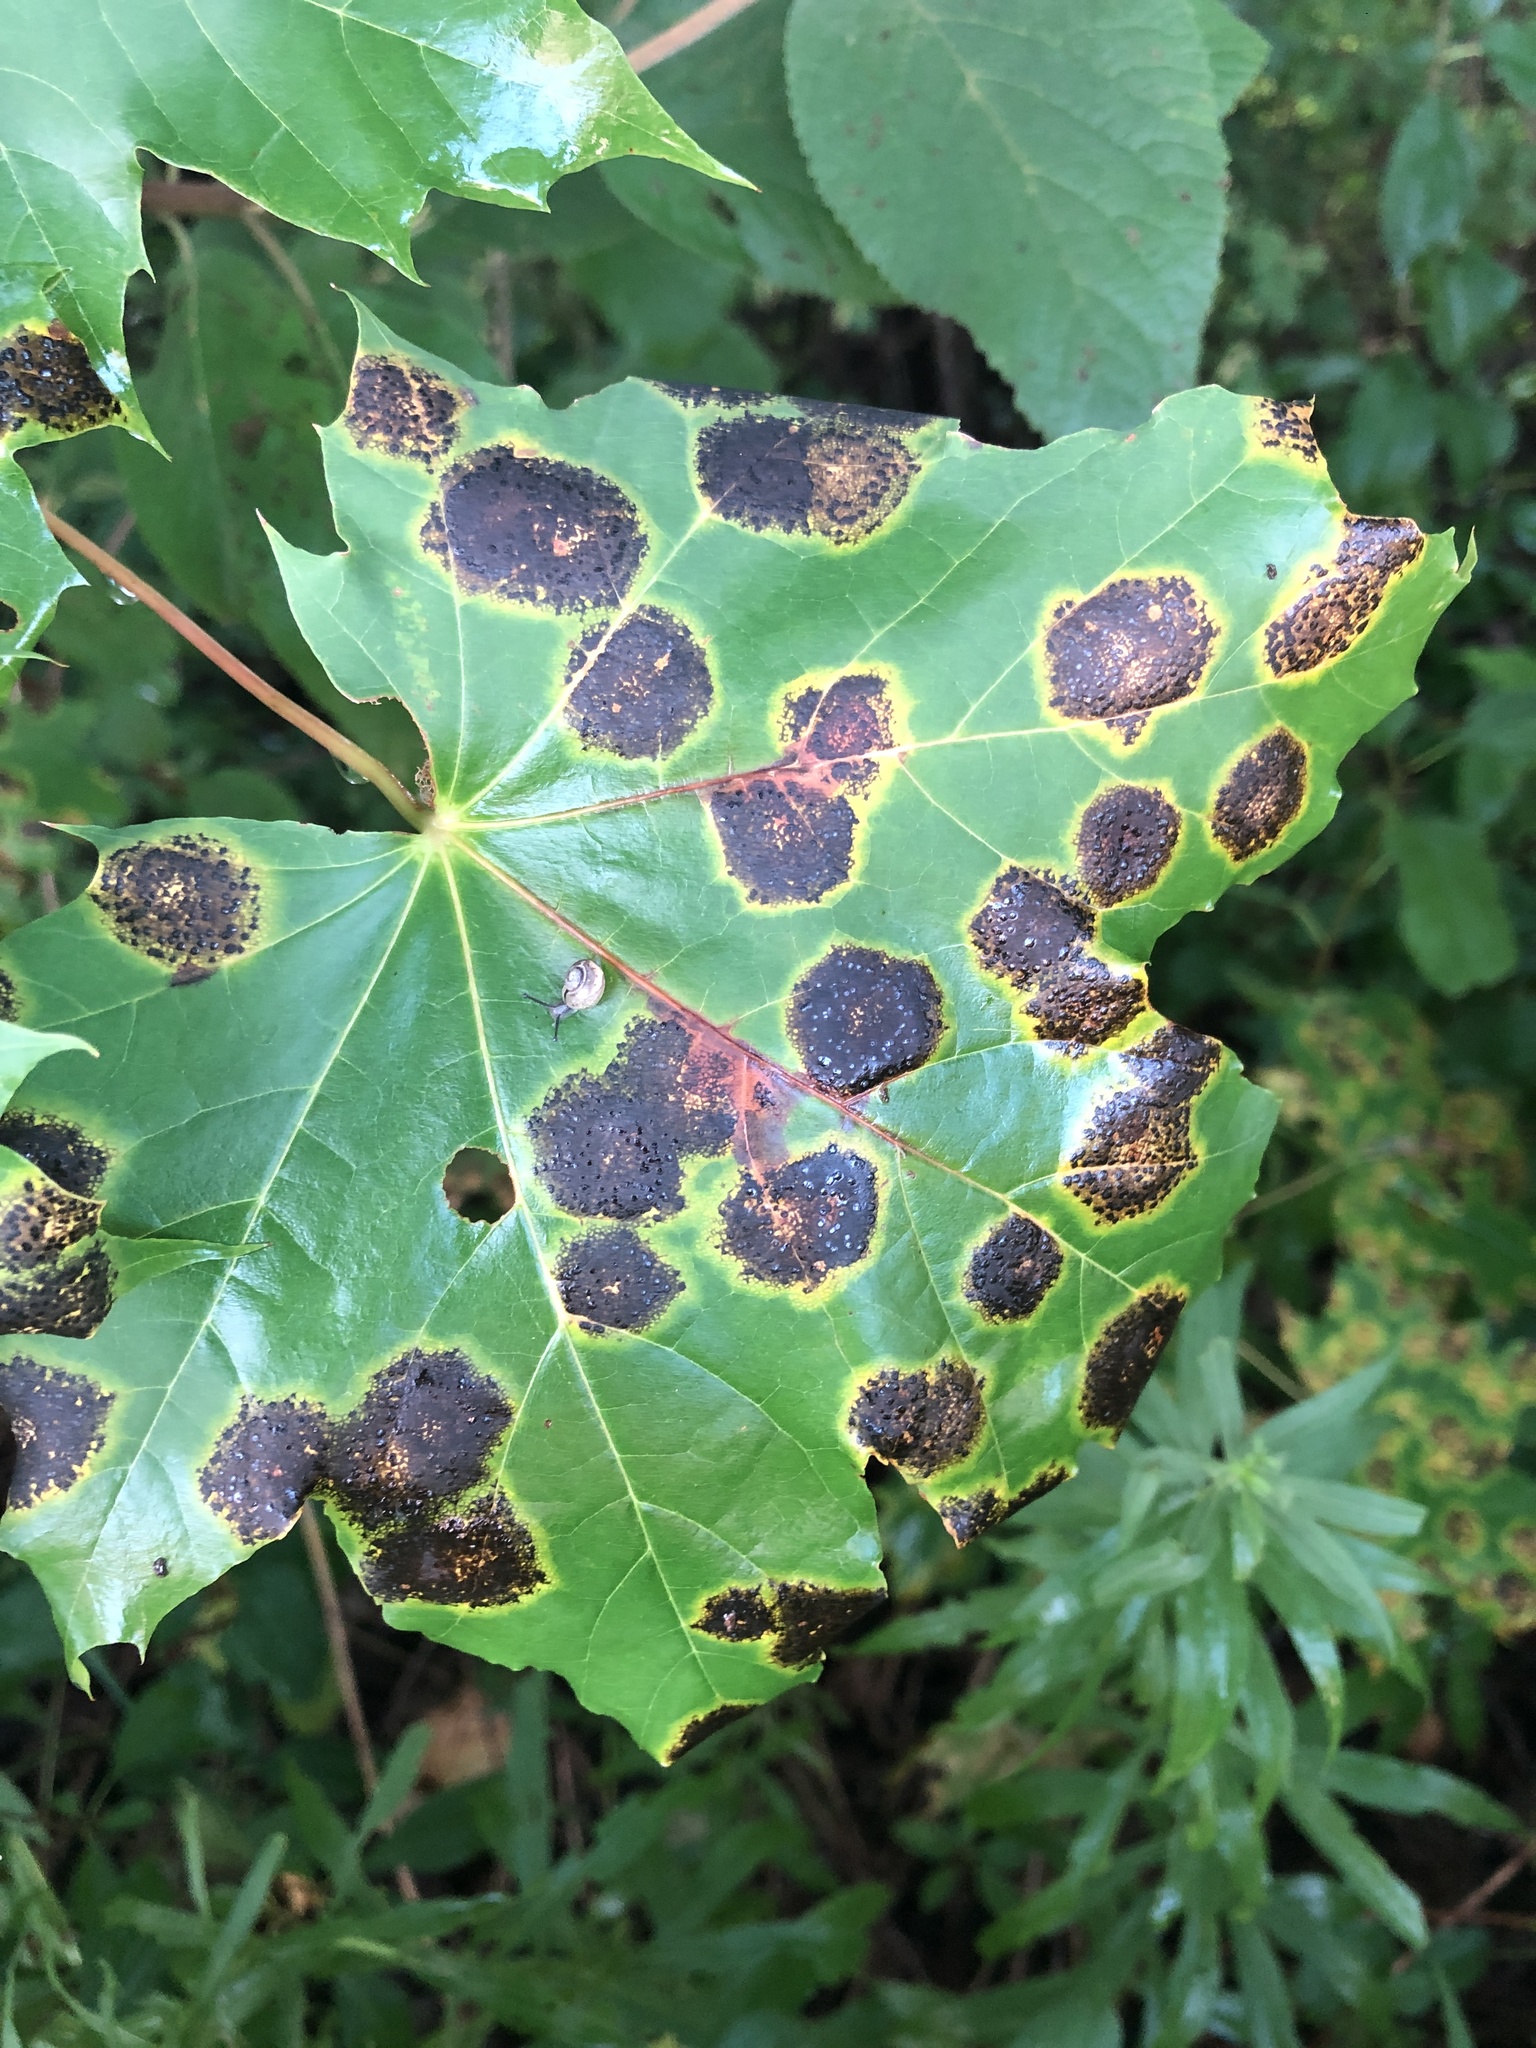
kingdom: Fungi
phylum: Ascomycota
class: Leotiomycetes
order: Rhytismatales
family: Rhytismataceae
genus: Rhytisma
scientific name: Rhytisma acerinum
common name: European tar spot
